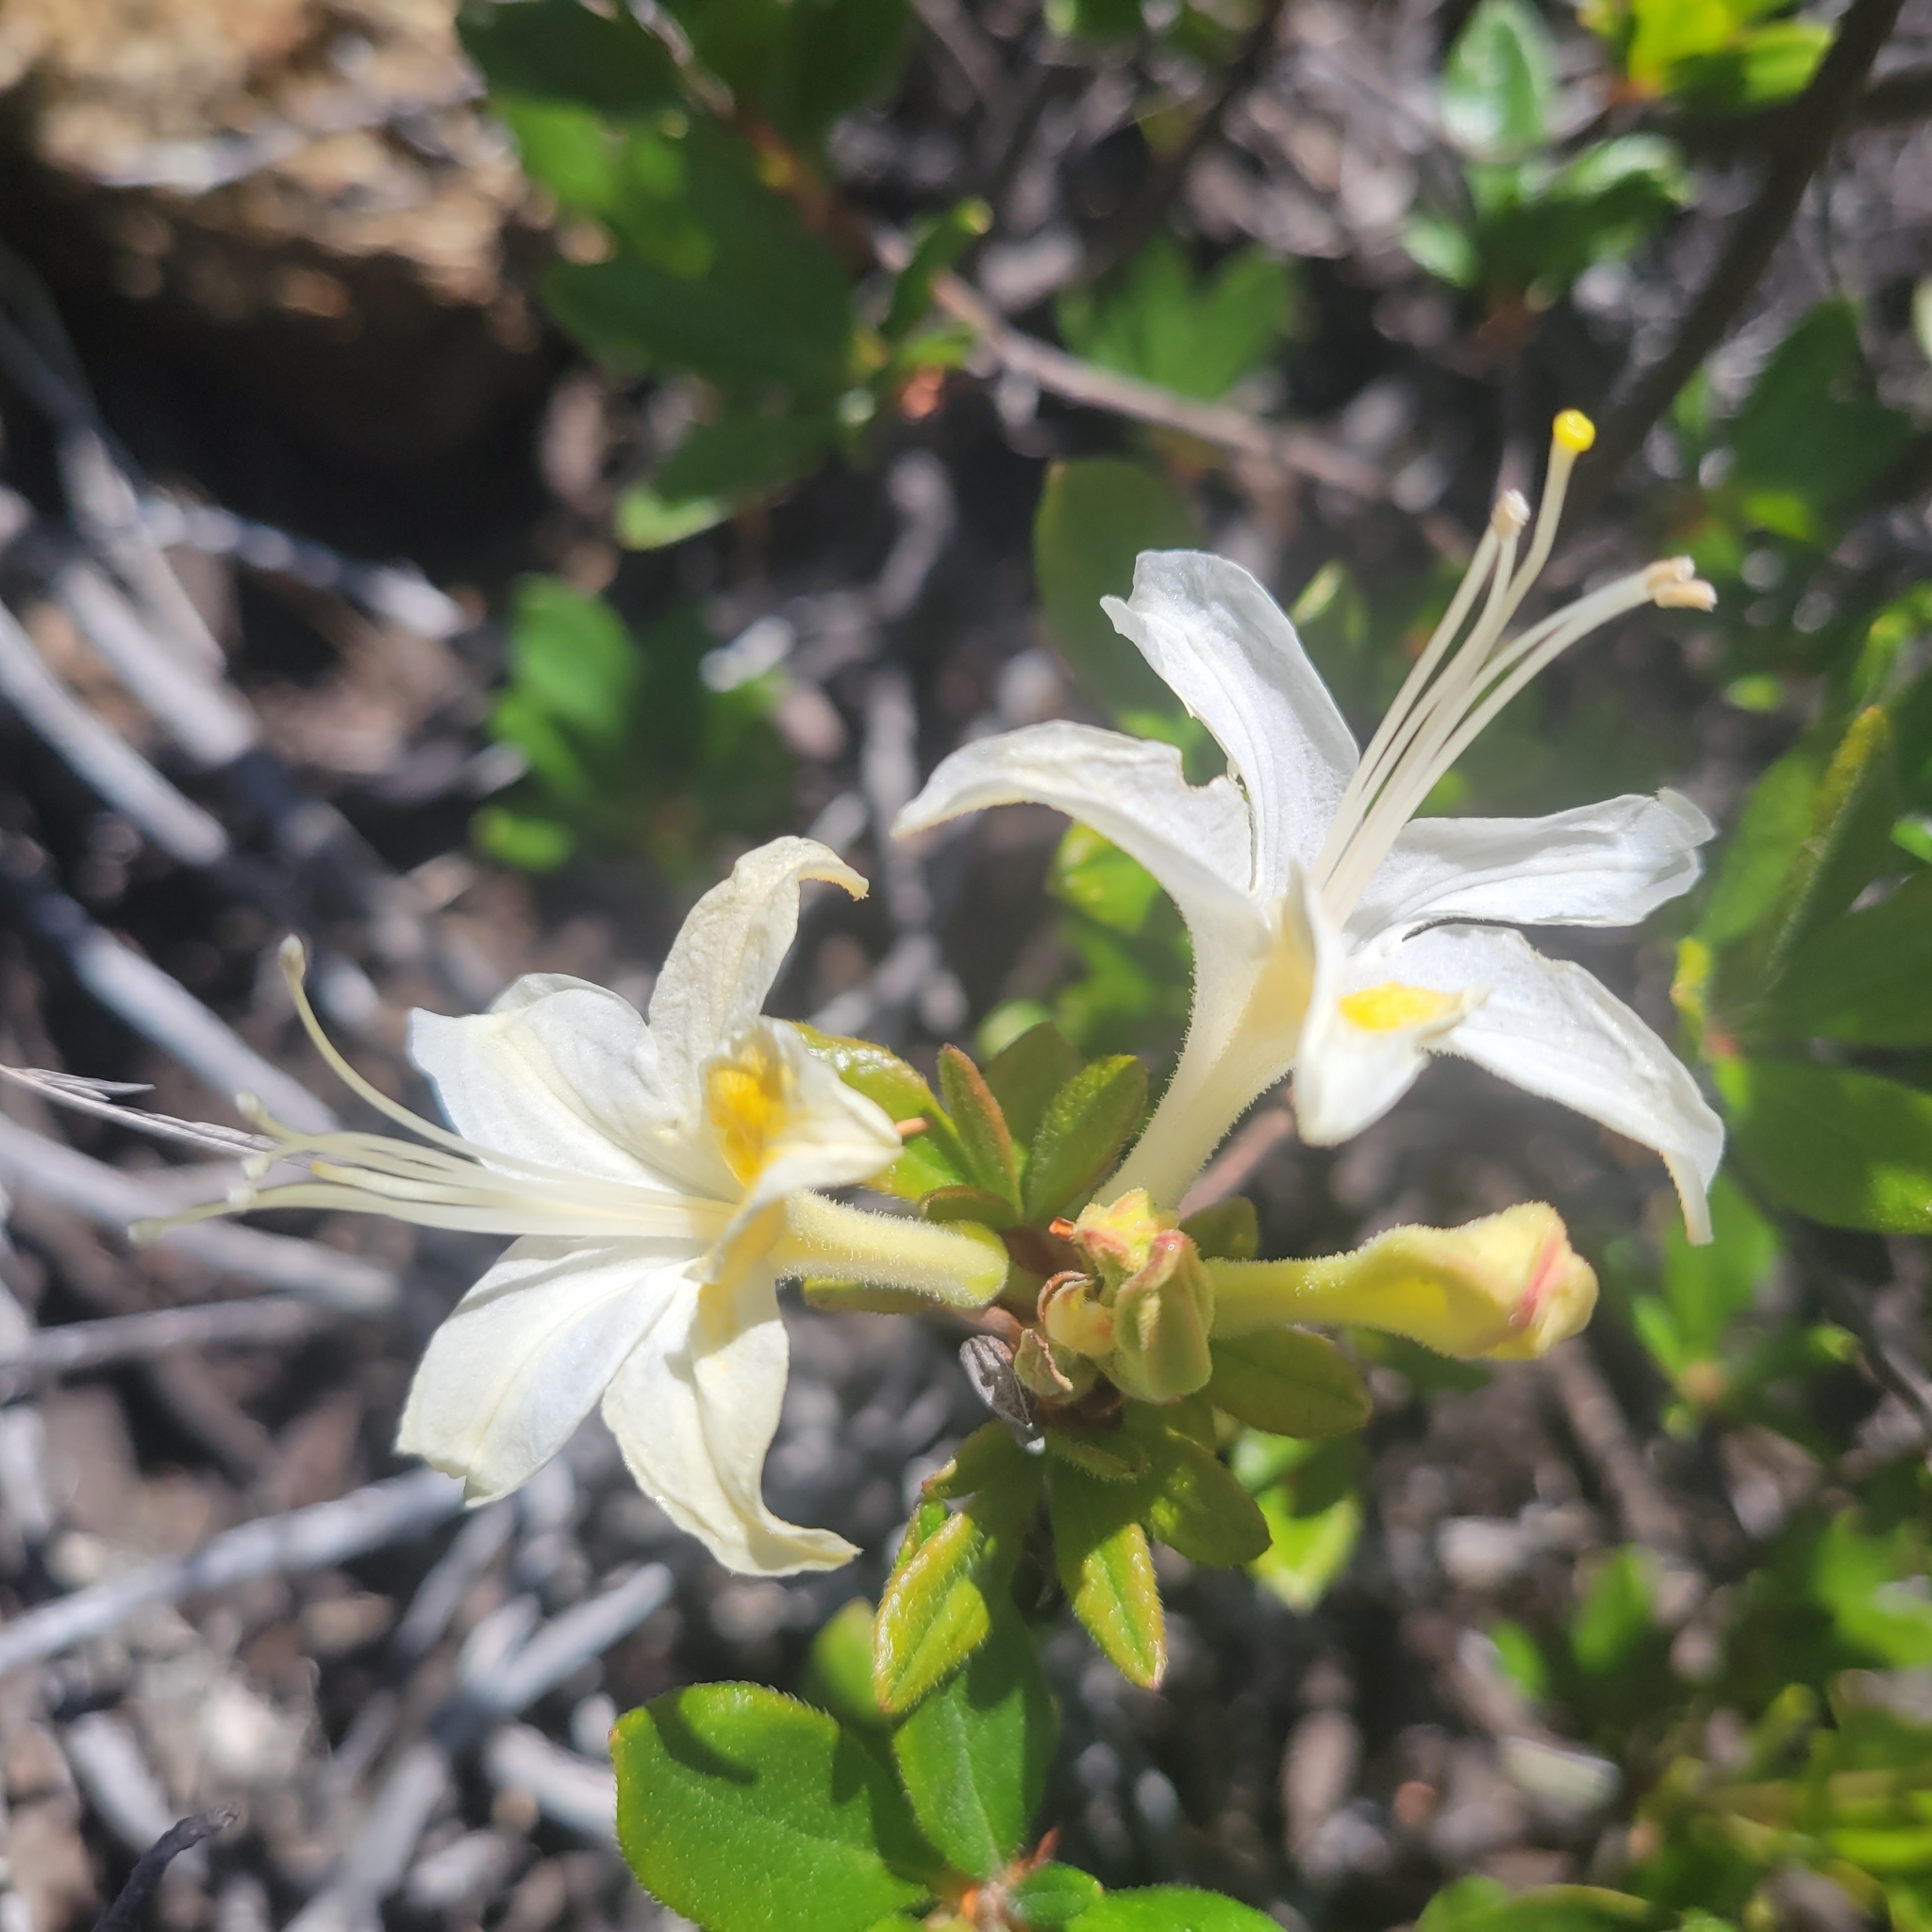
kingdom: Plantae
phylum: Tracheophyta
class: Magnoliopsida
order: Ericales
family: Ericaceae
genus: Rhododendron
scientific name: Rhododendron occidentale
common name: Western azalea
